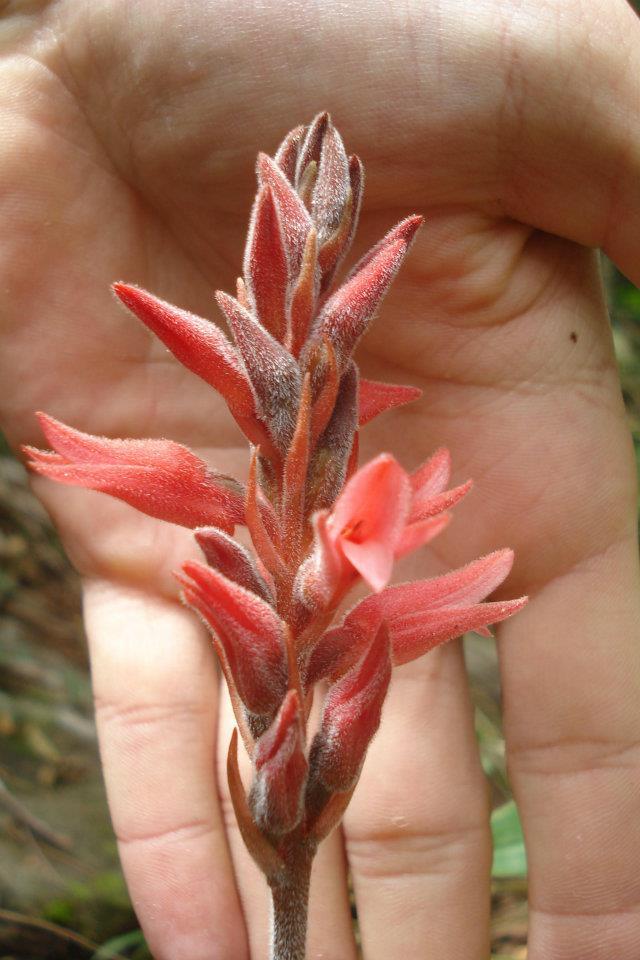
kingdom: Plantae
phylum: Tracheophyta
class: Liliopsida
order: Asparagales
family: Orchidaceae
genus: Sacoila
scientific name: Sacoila lanceolata
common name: Leafless beaked ladiestresses
